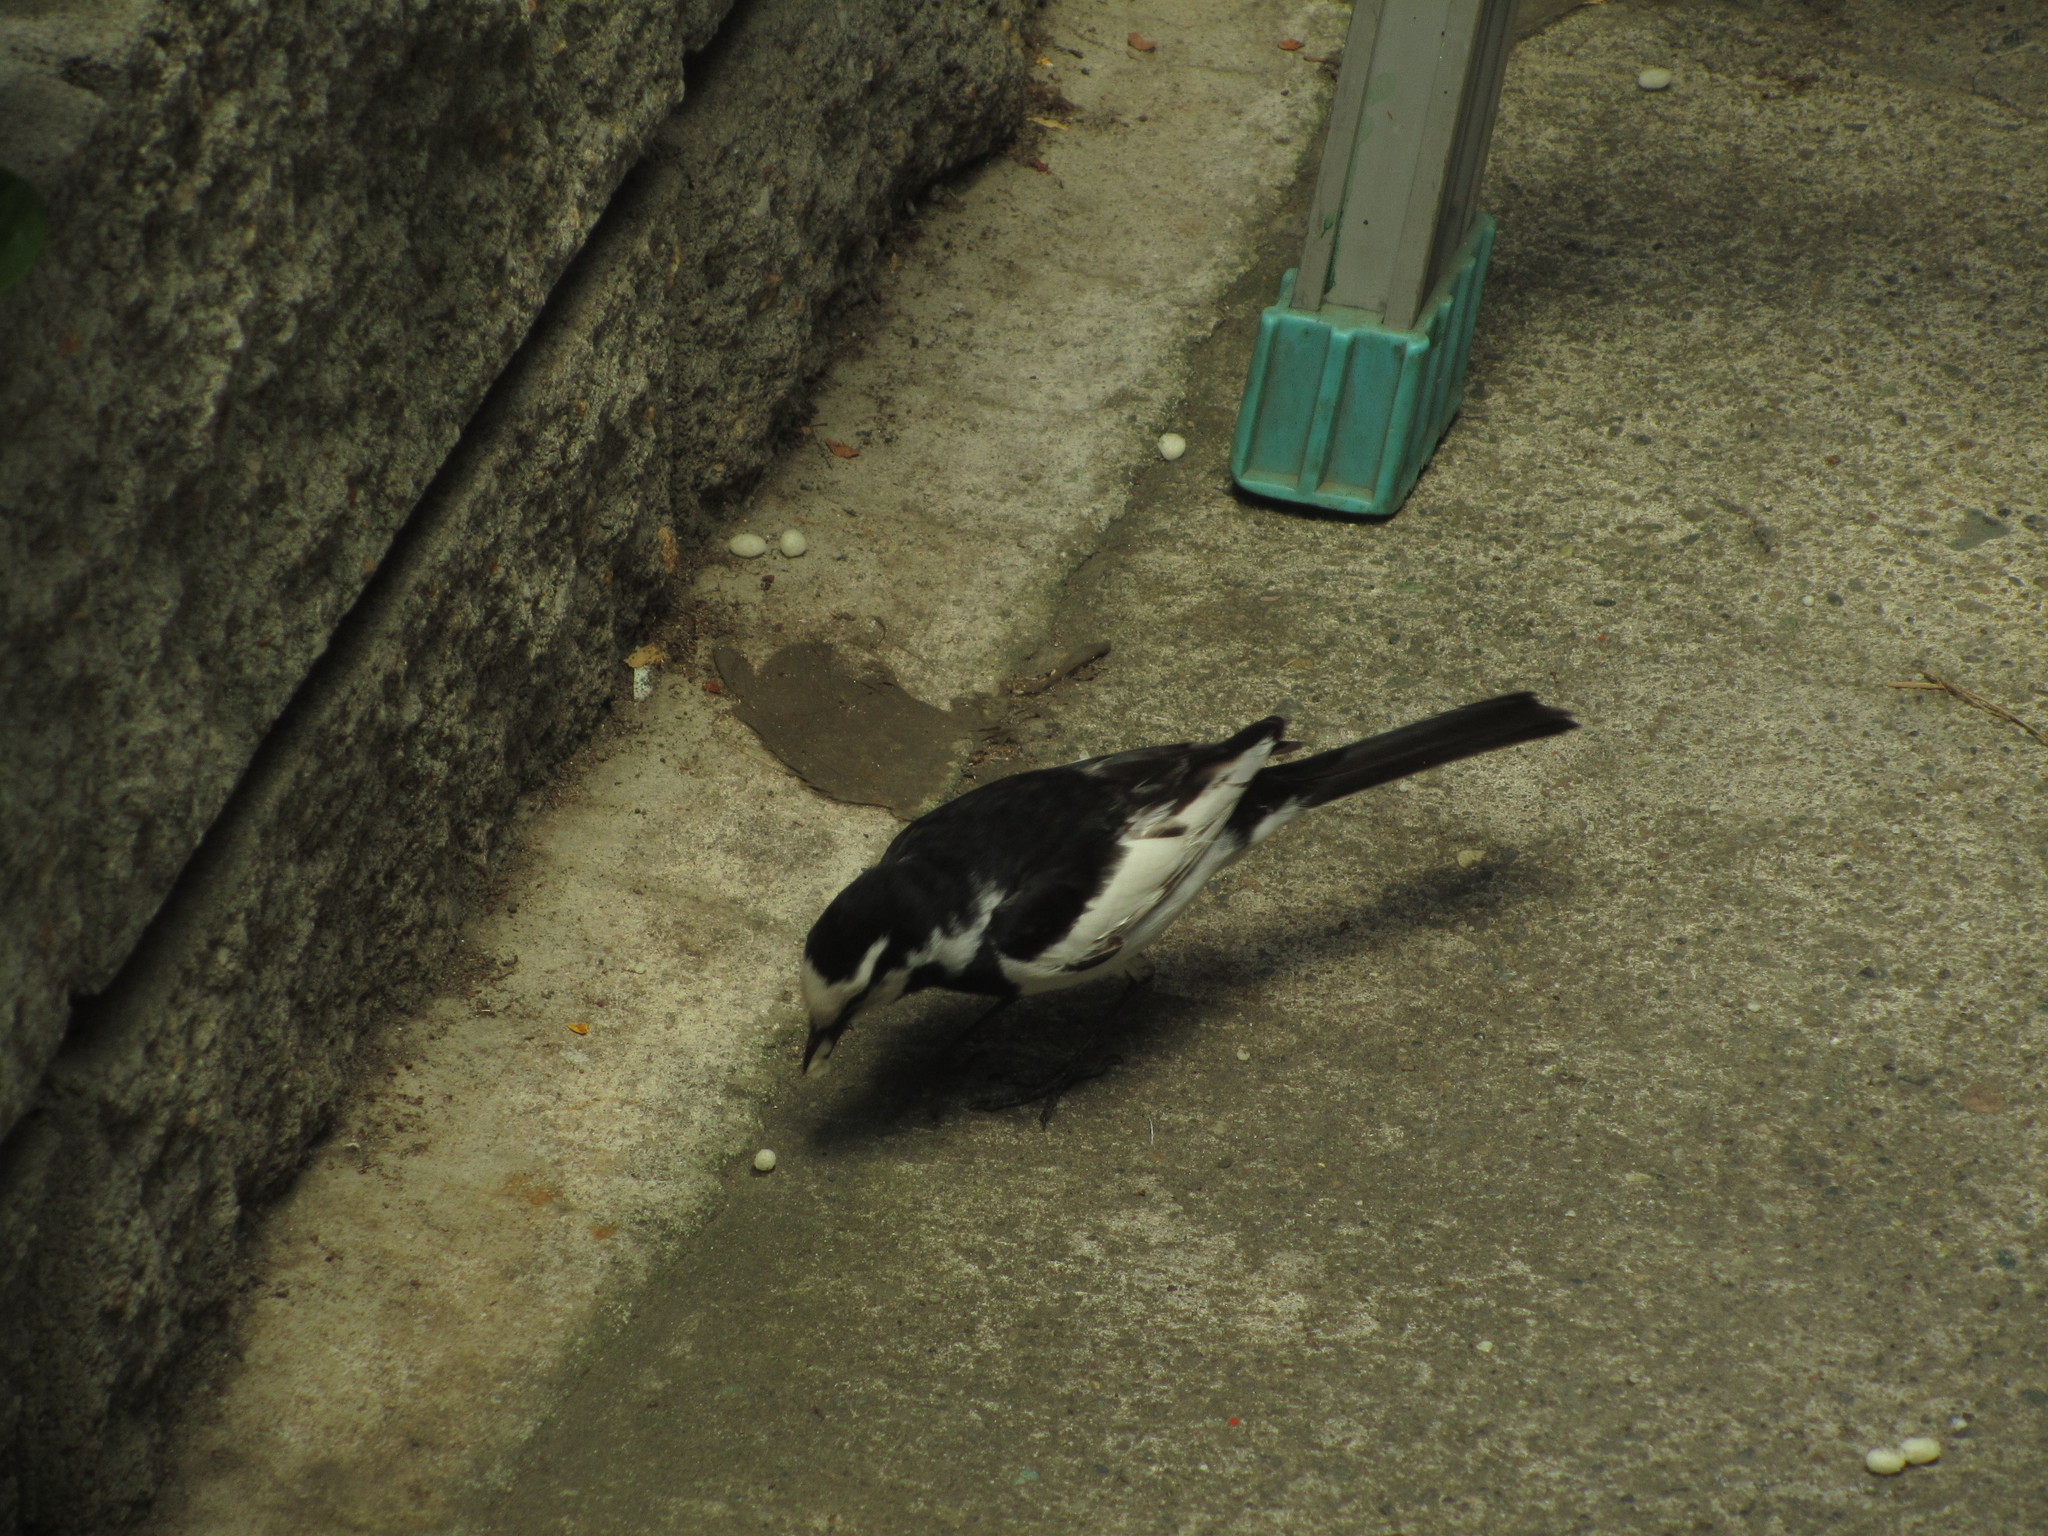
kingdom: Animalia
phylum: Chordata
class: Aves
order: Passeriformes
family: Motacillidae
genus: Motacilla
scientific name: Motacilla alba
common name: White wagtail
